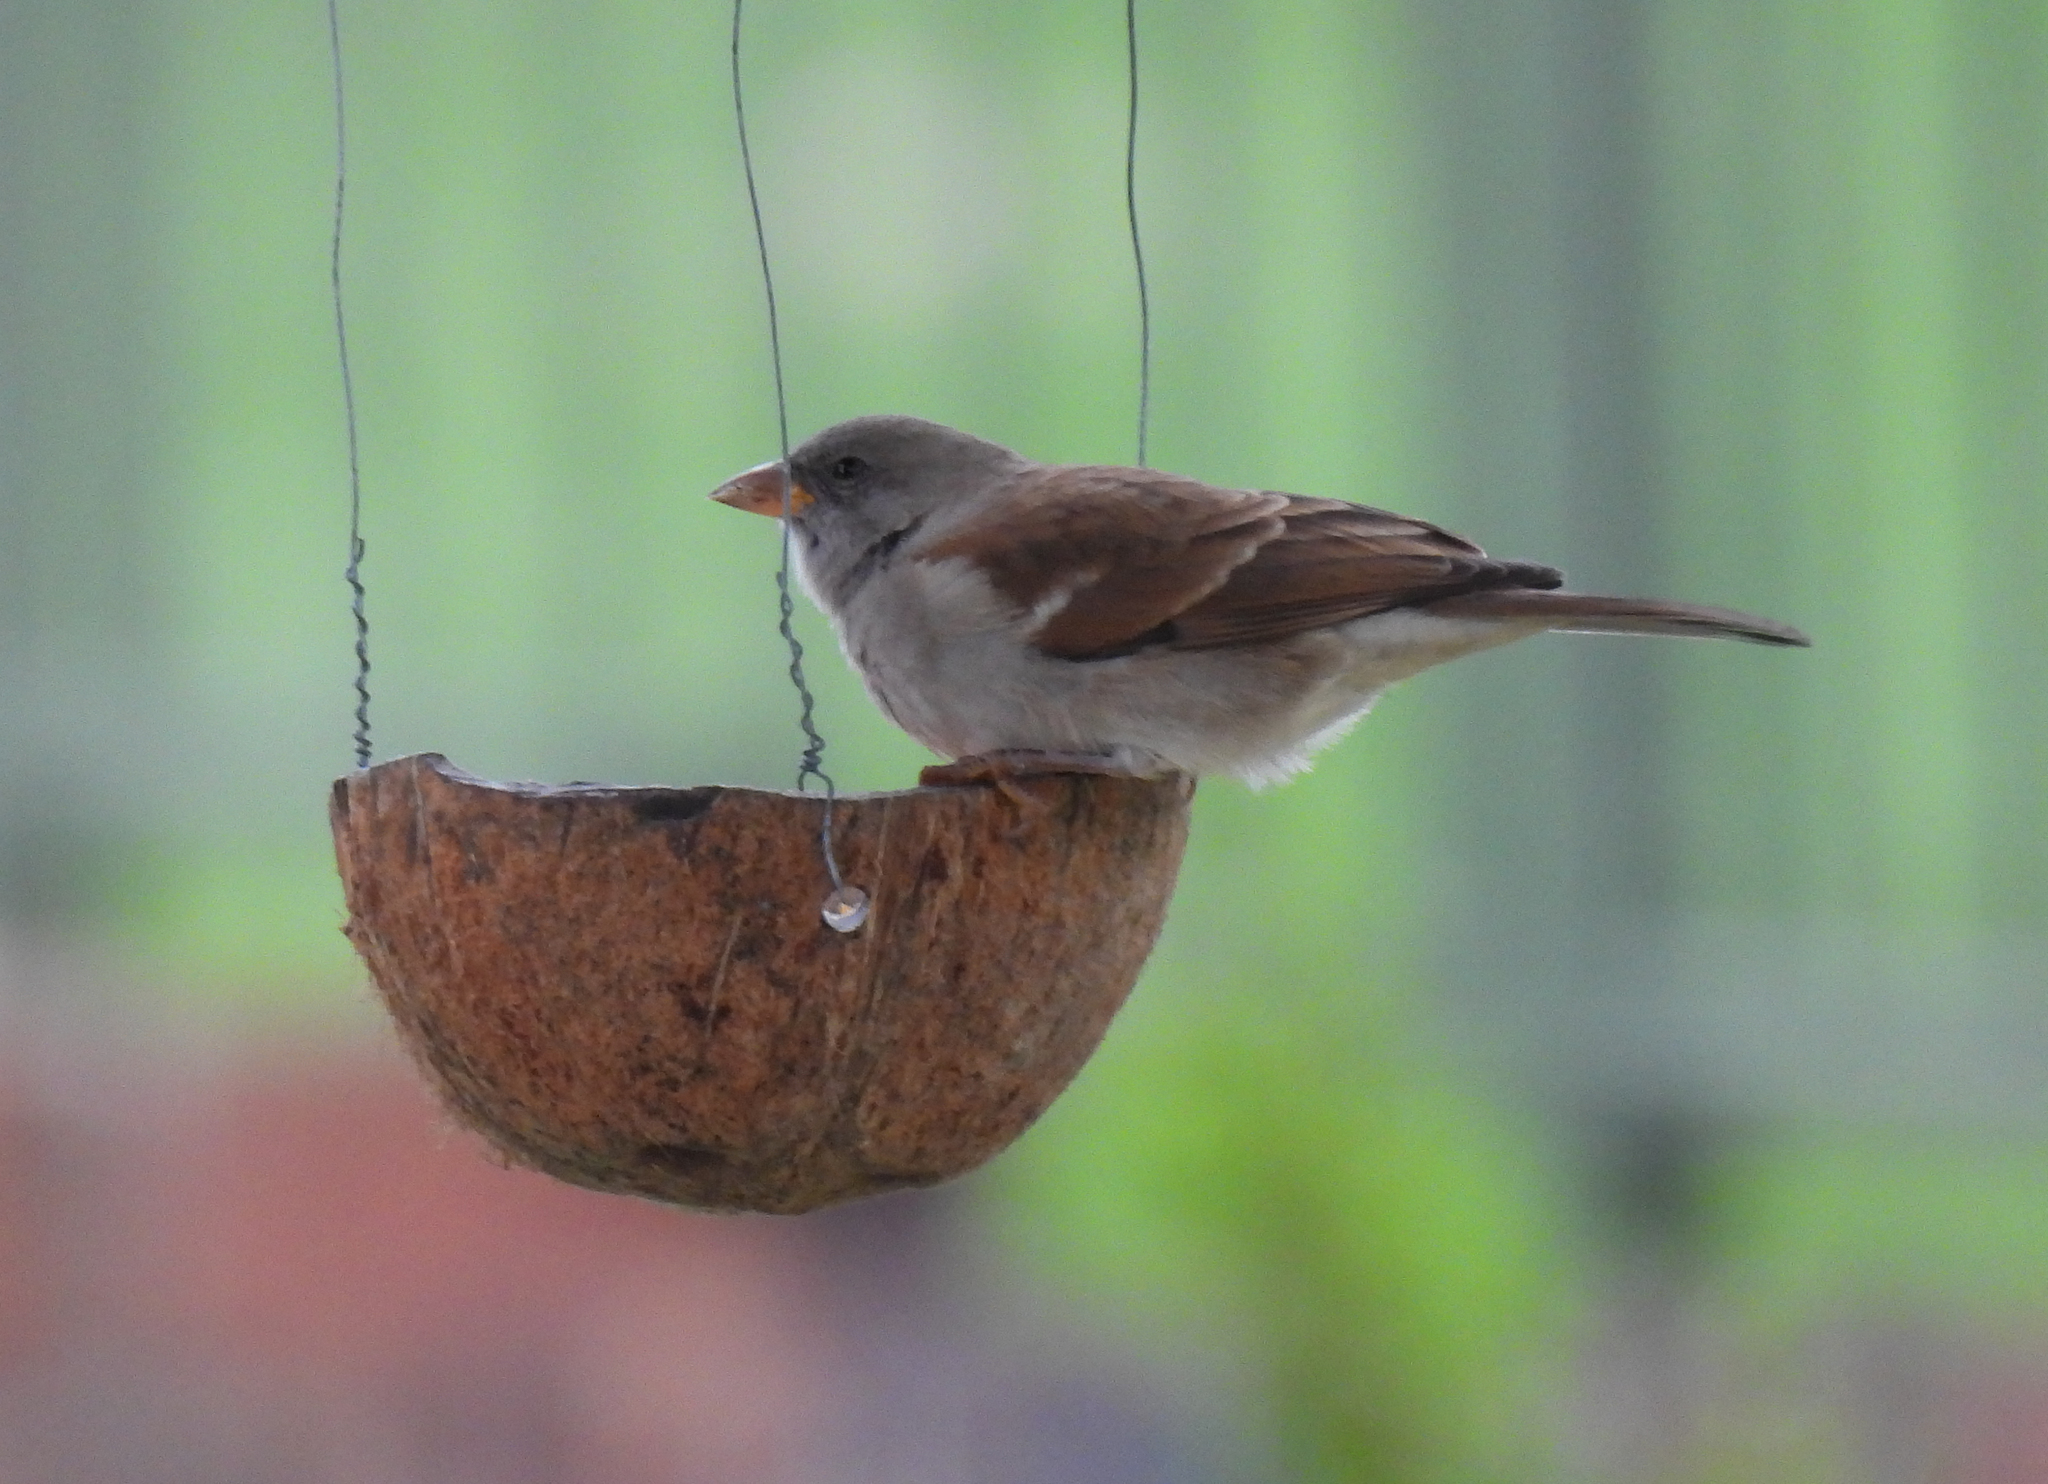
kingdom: Animalia
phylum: Chordata
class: Aves
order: Passeriformes
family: Passeridae
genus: Passer
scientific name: Passer diffusus
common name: Southern grey-headed sparrow
